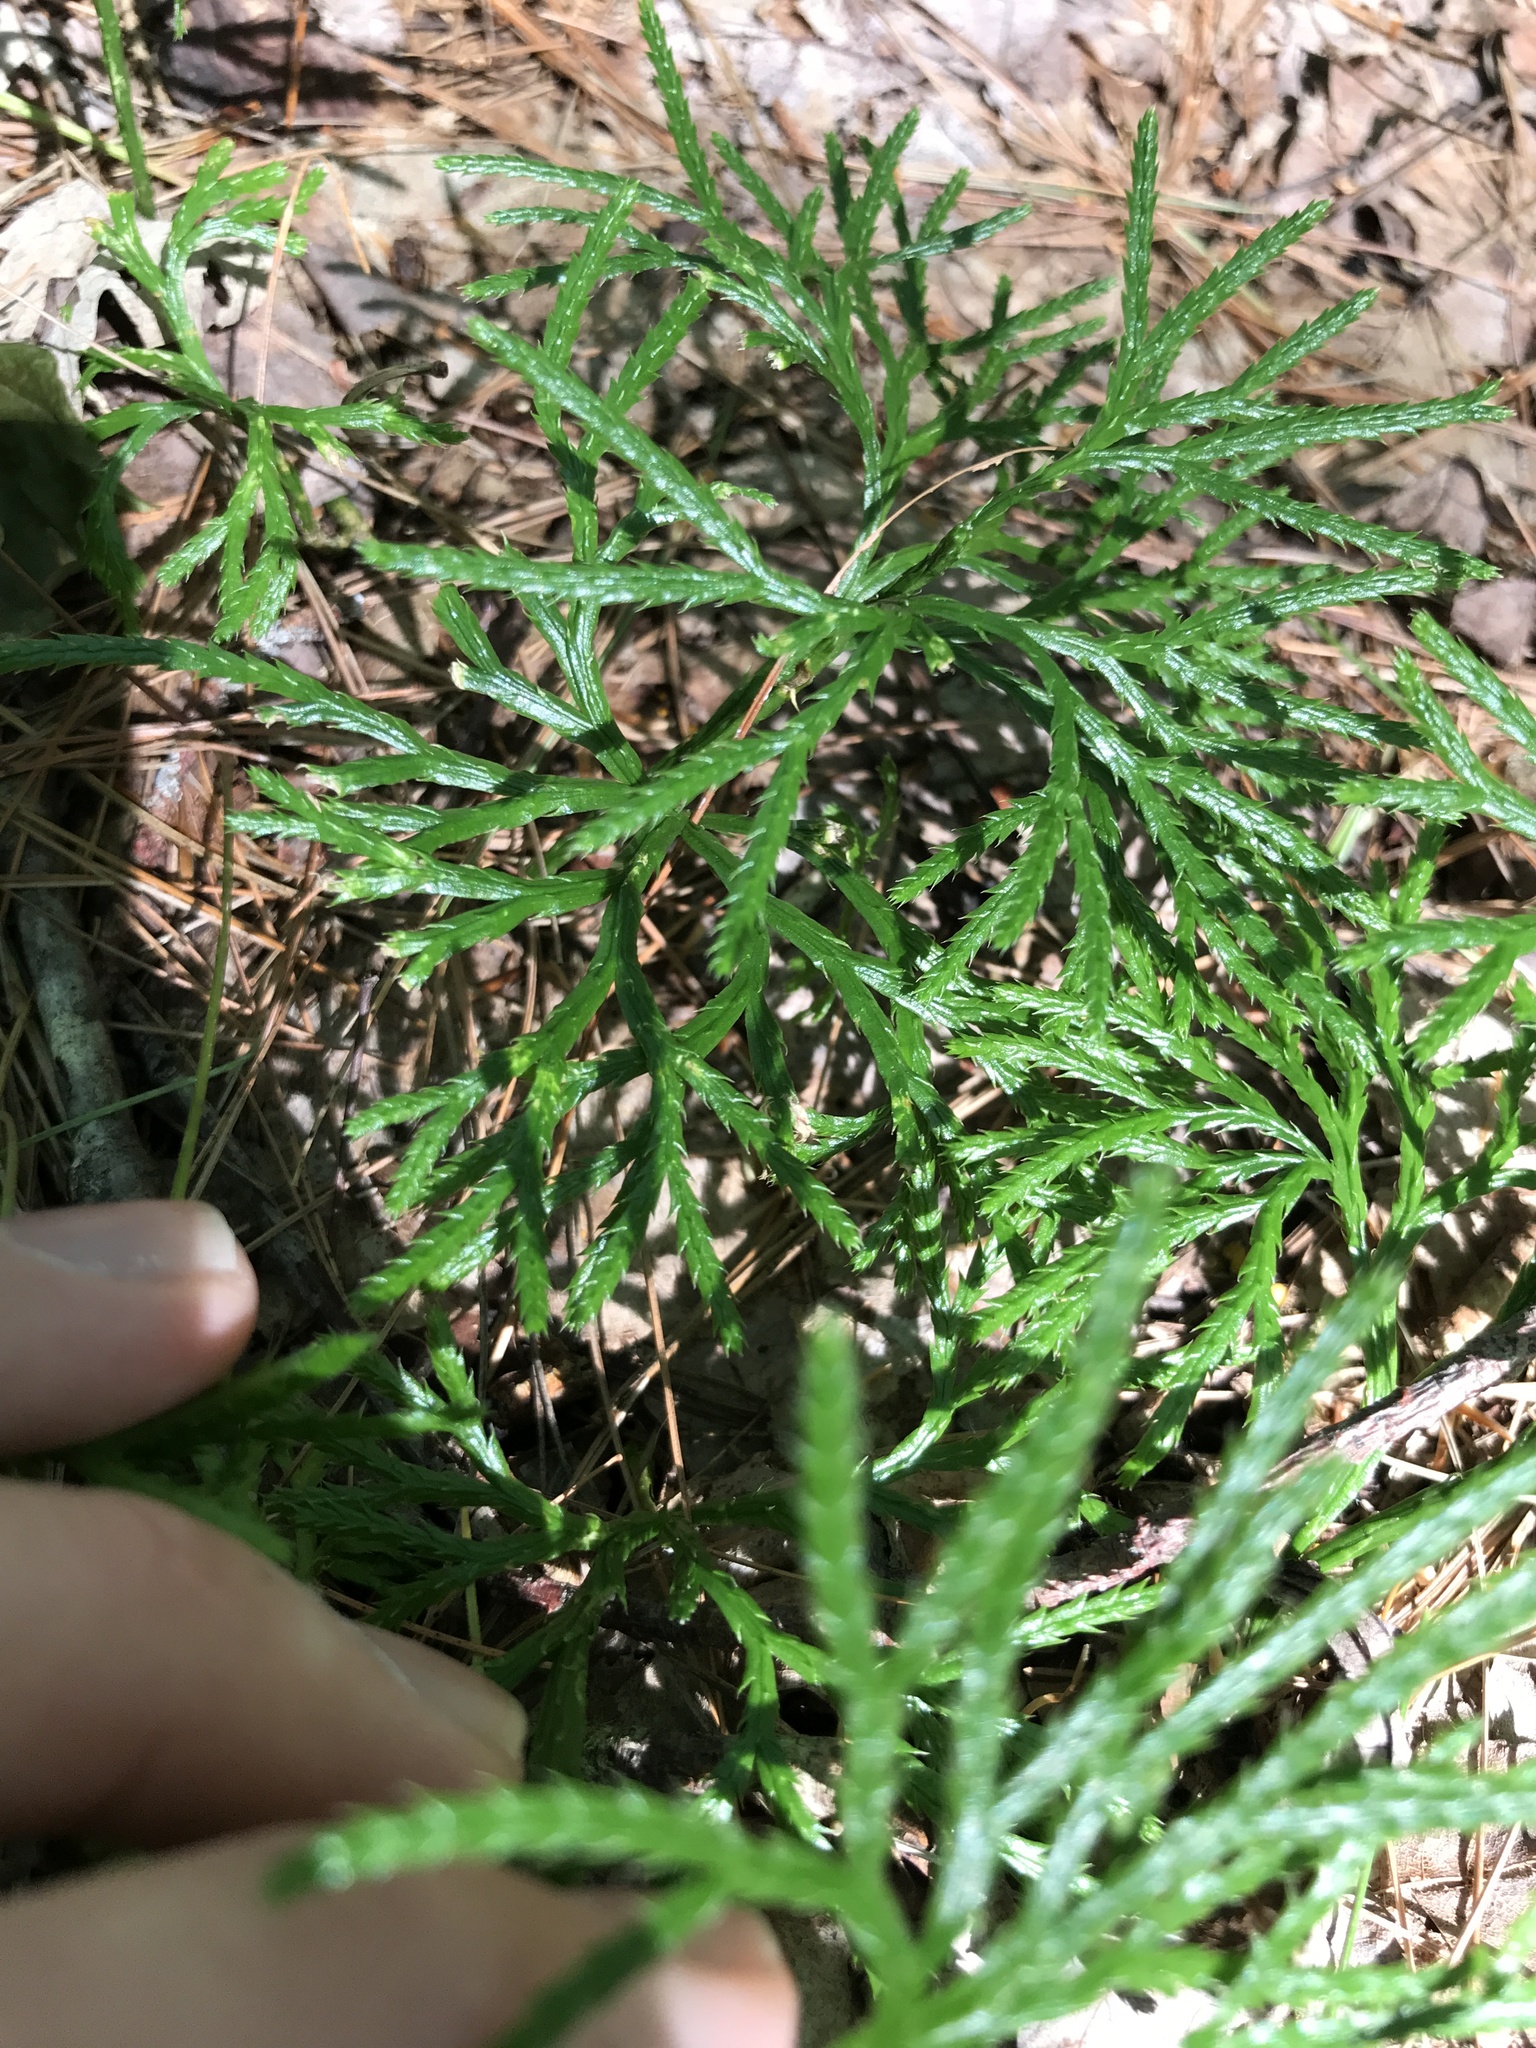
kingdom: Plantae
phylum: Tracheophyta
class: Lycopodiopsida
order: Lycopodiales
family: Lycopodiaceae
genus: Diphasiastrum
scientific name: Diphasiastrum digitatum
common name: Southern running-pine
